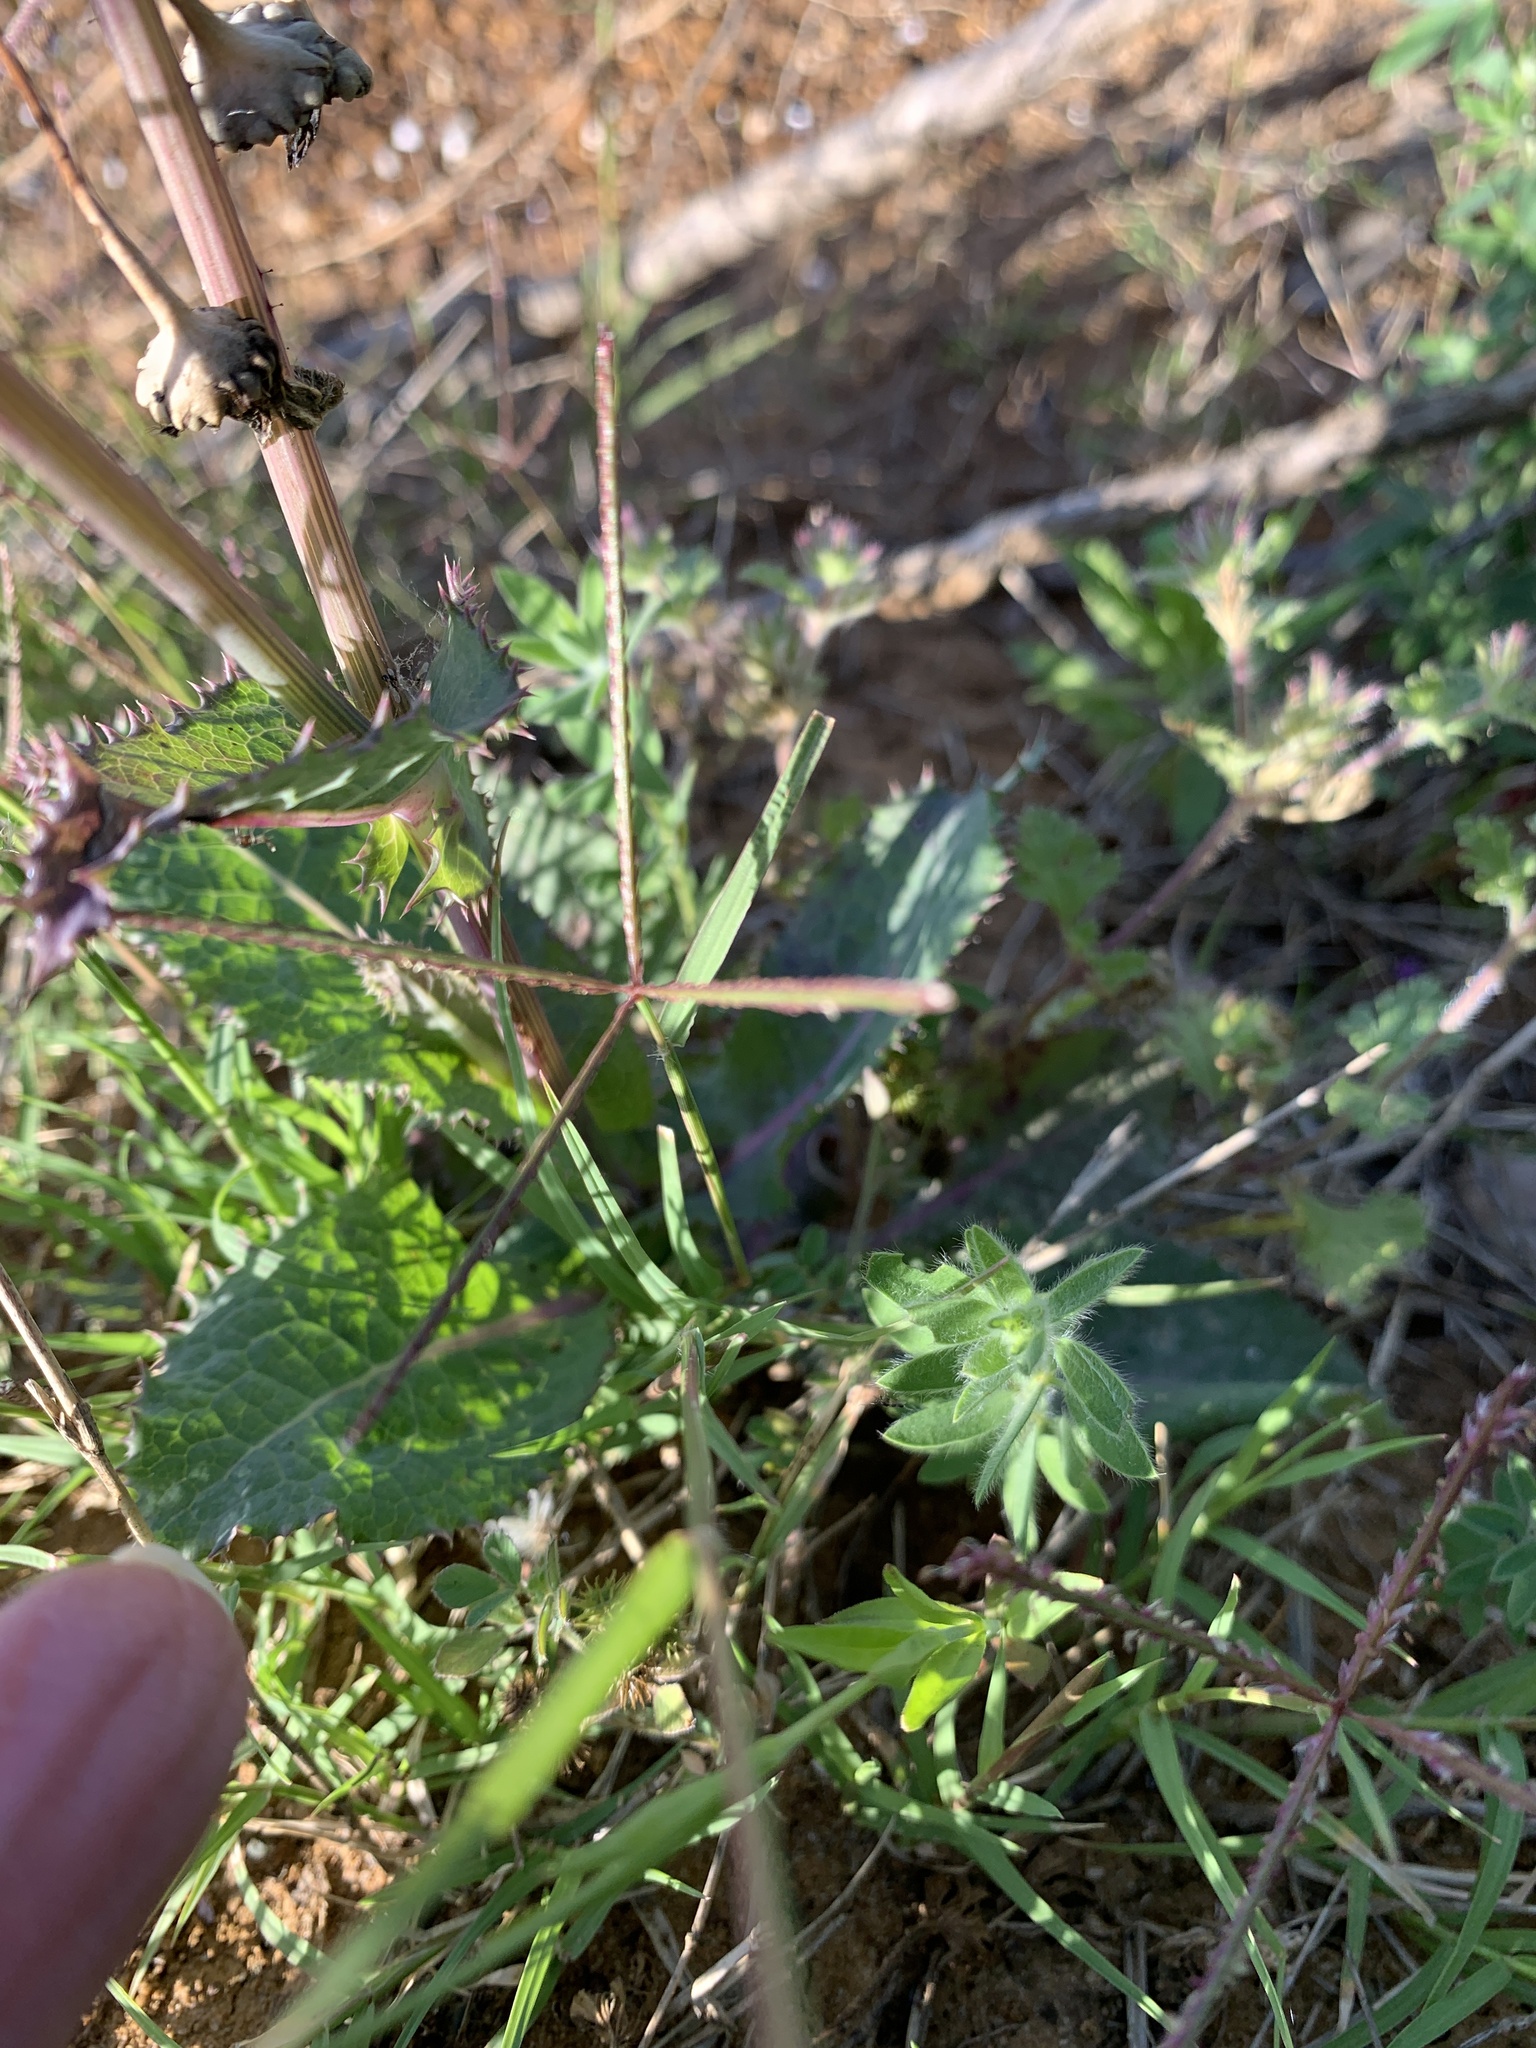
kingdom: Plantae
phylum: Tracheophyta
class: Magnoliopsida
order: Asterales
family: Asteraceae
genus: Sonchus
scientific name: Sonchus asper
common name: Prickly sow-thistle
